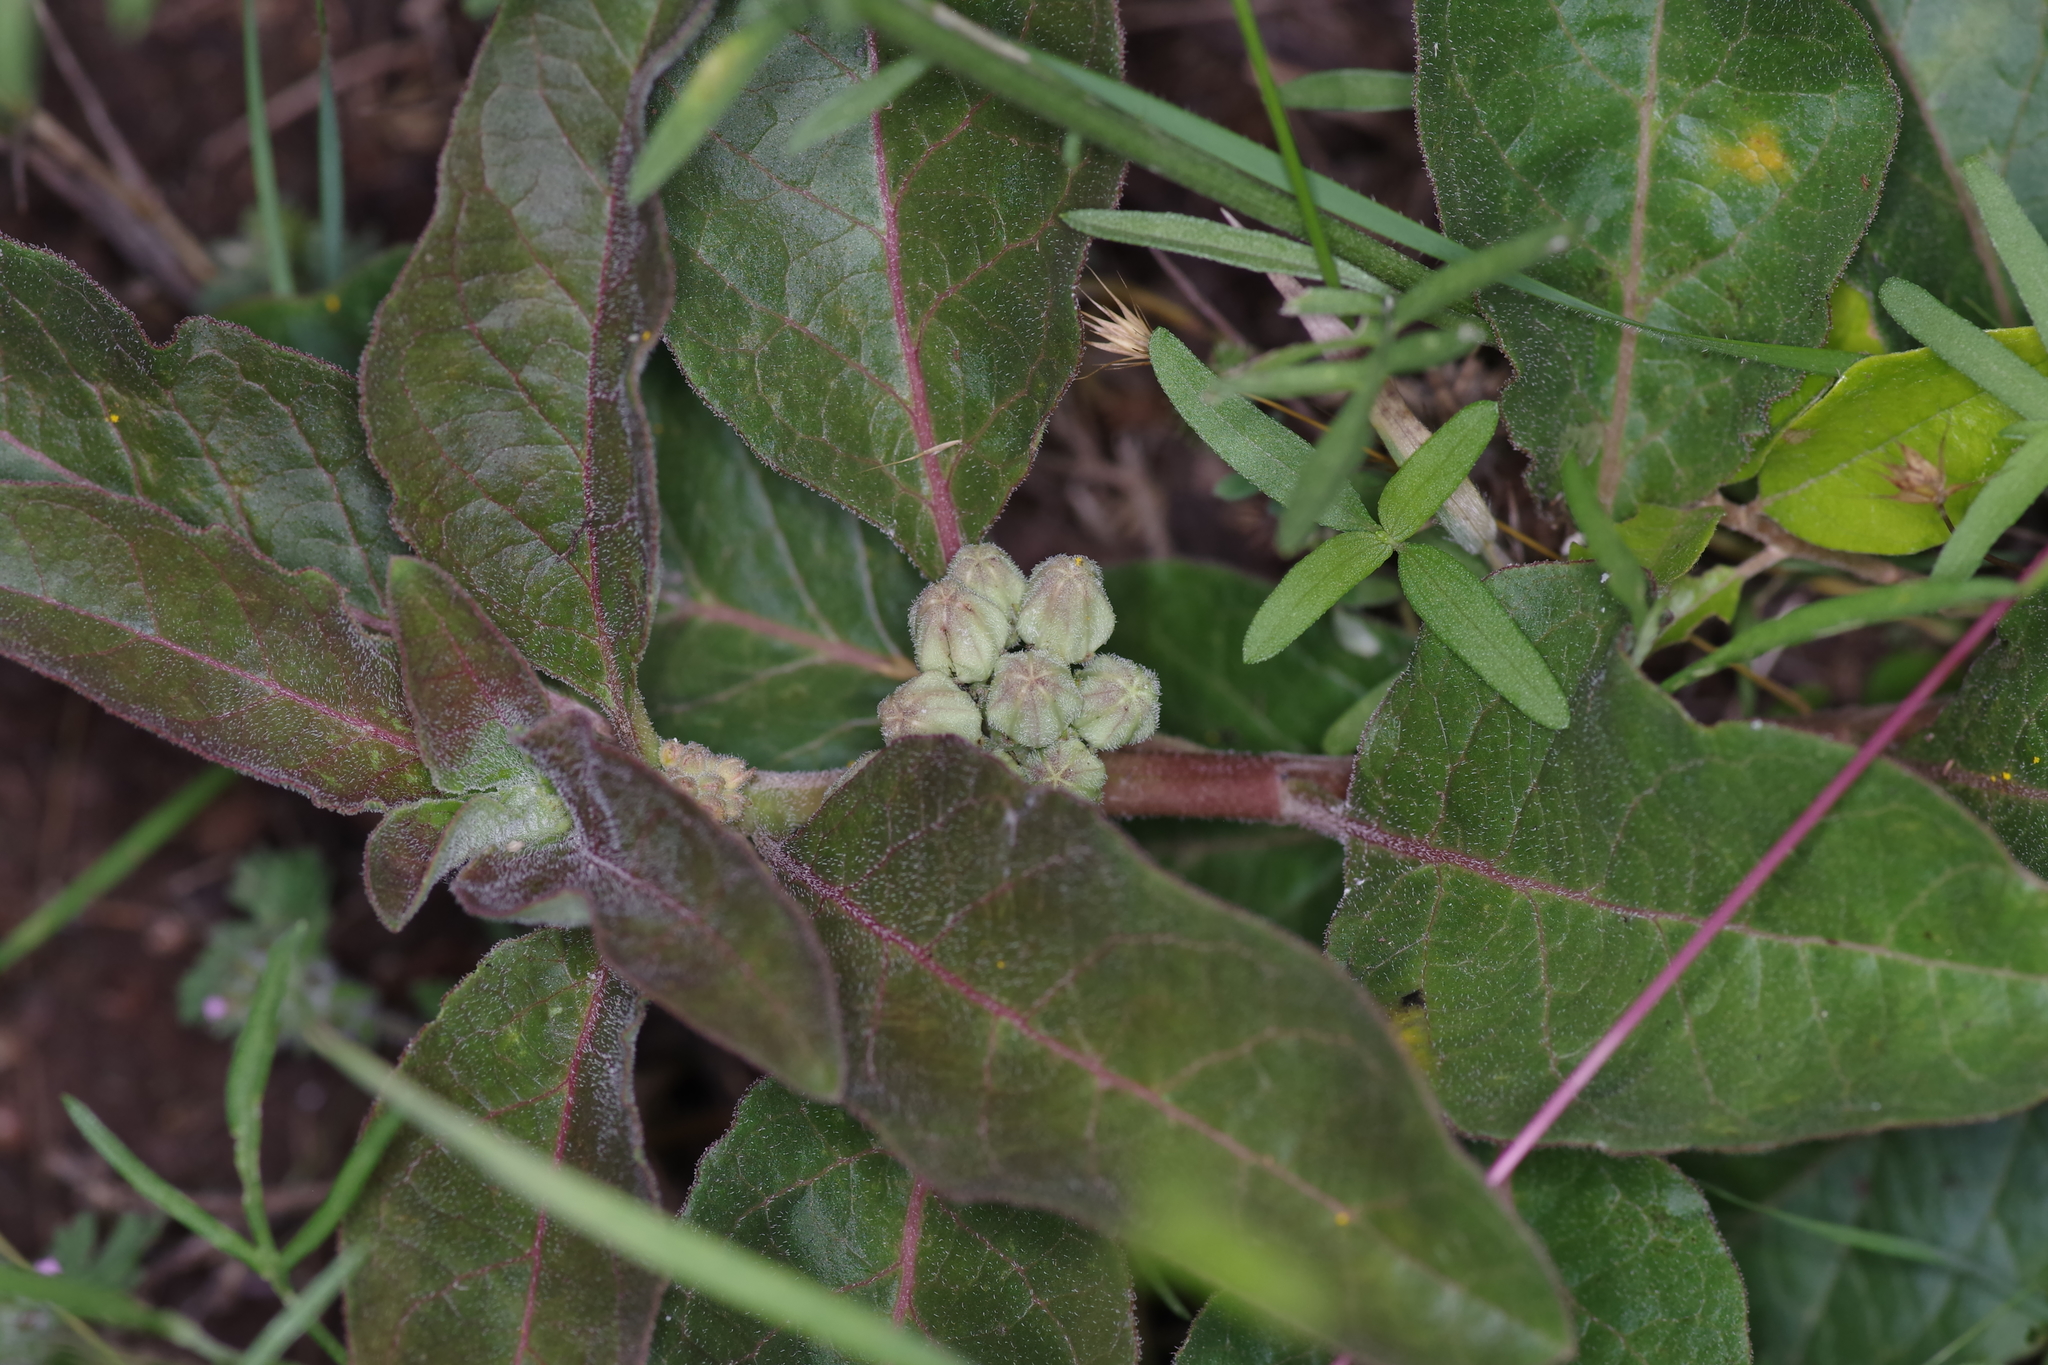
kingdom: Plantae
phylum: Tracheophyta
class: Magnoliopsida
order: Gentianales
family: Apocynaceae
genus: Asclepias
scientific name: Asclepias oenotheroides
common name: Zizotes milkweed
